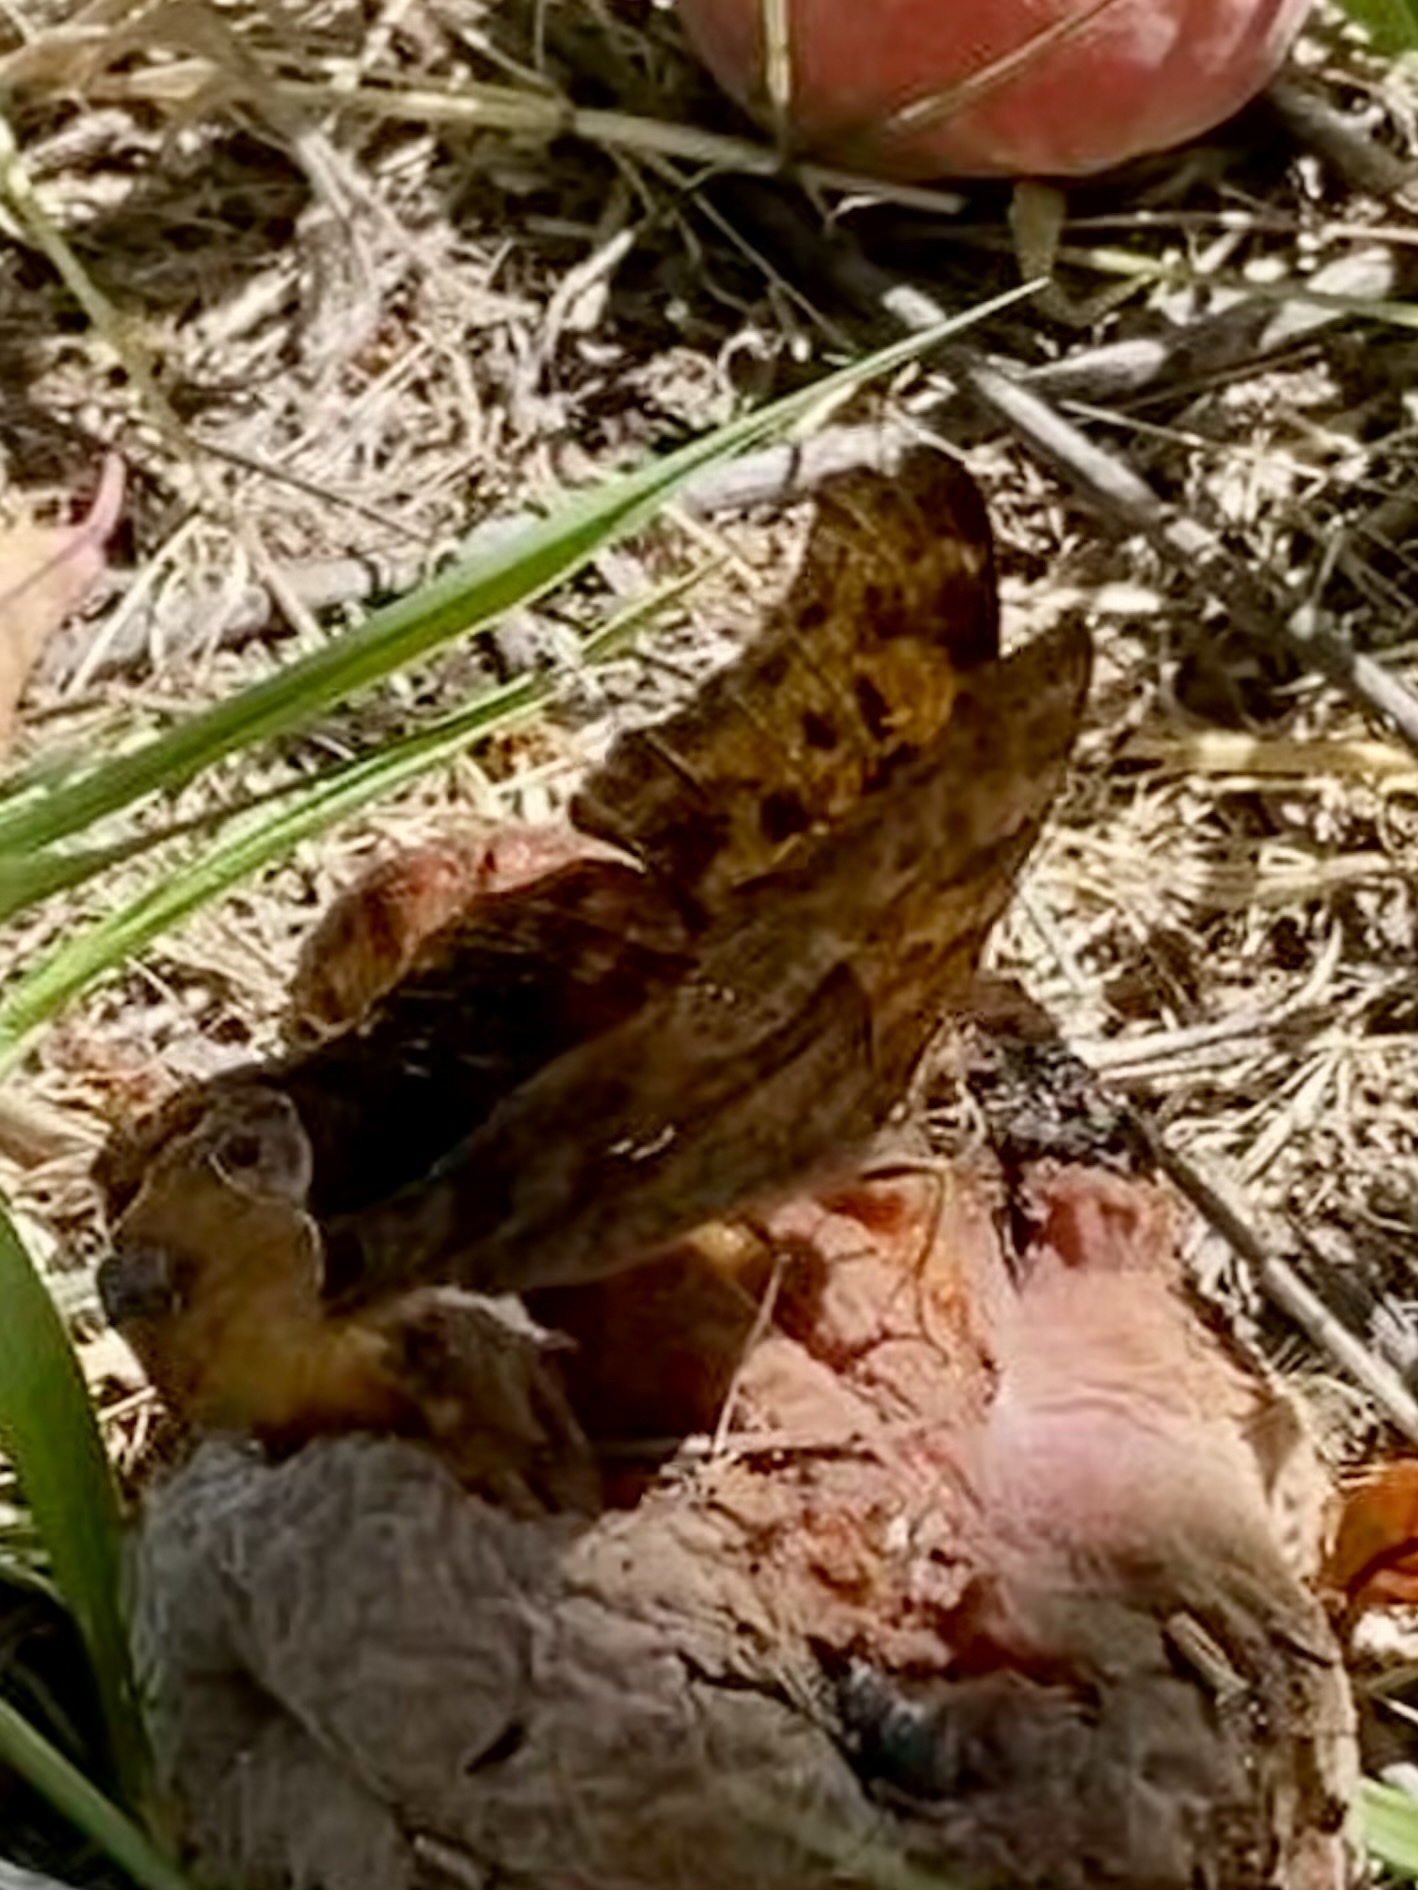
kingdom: Animalia
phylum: Arthropoda
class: Insecta
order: Lepidoptera
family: Nymphalidae
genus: Polygonia
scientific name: Polygonia interrogationis
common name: Question mark
